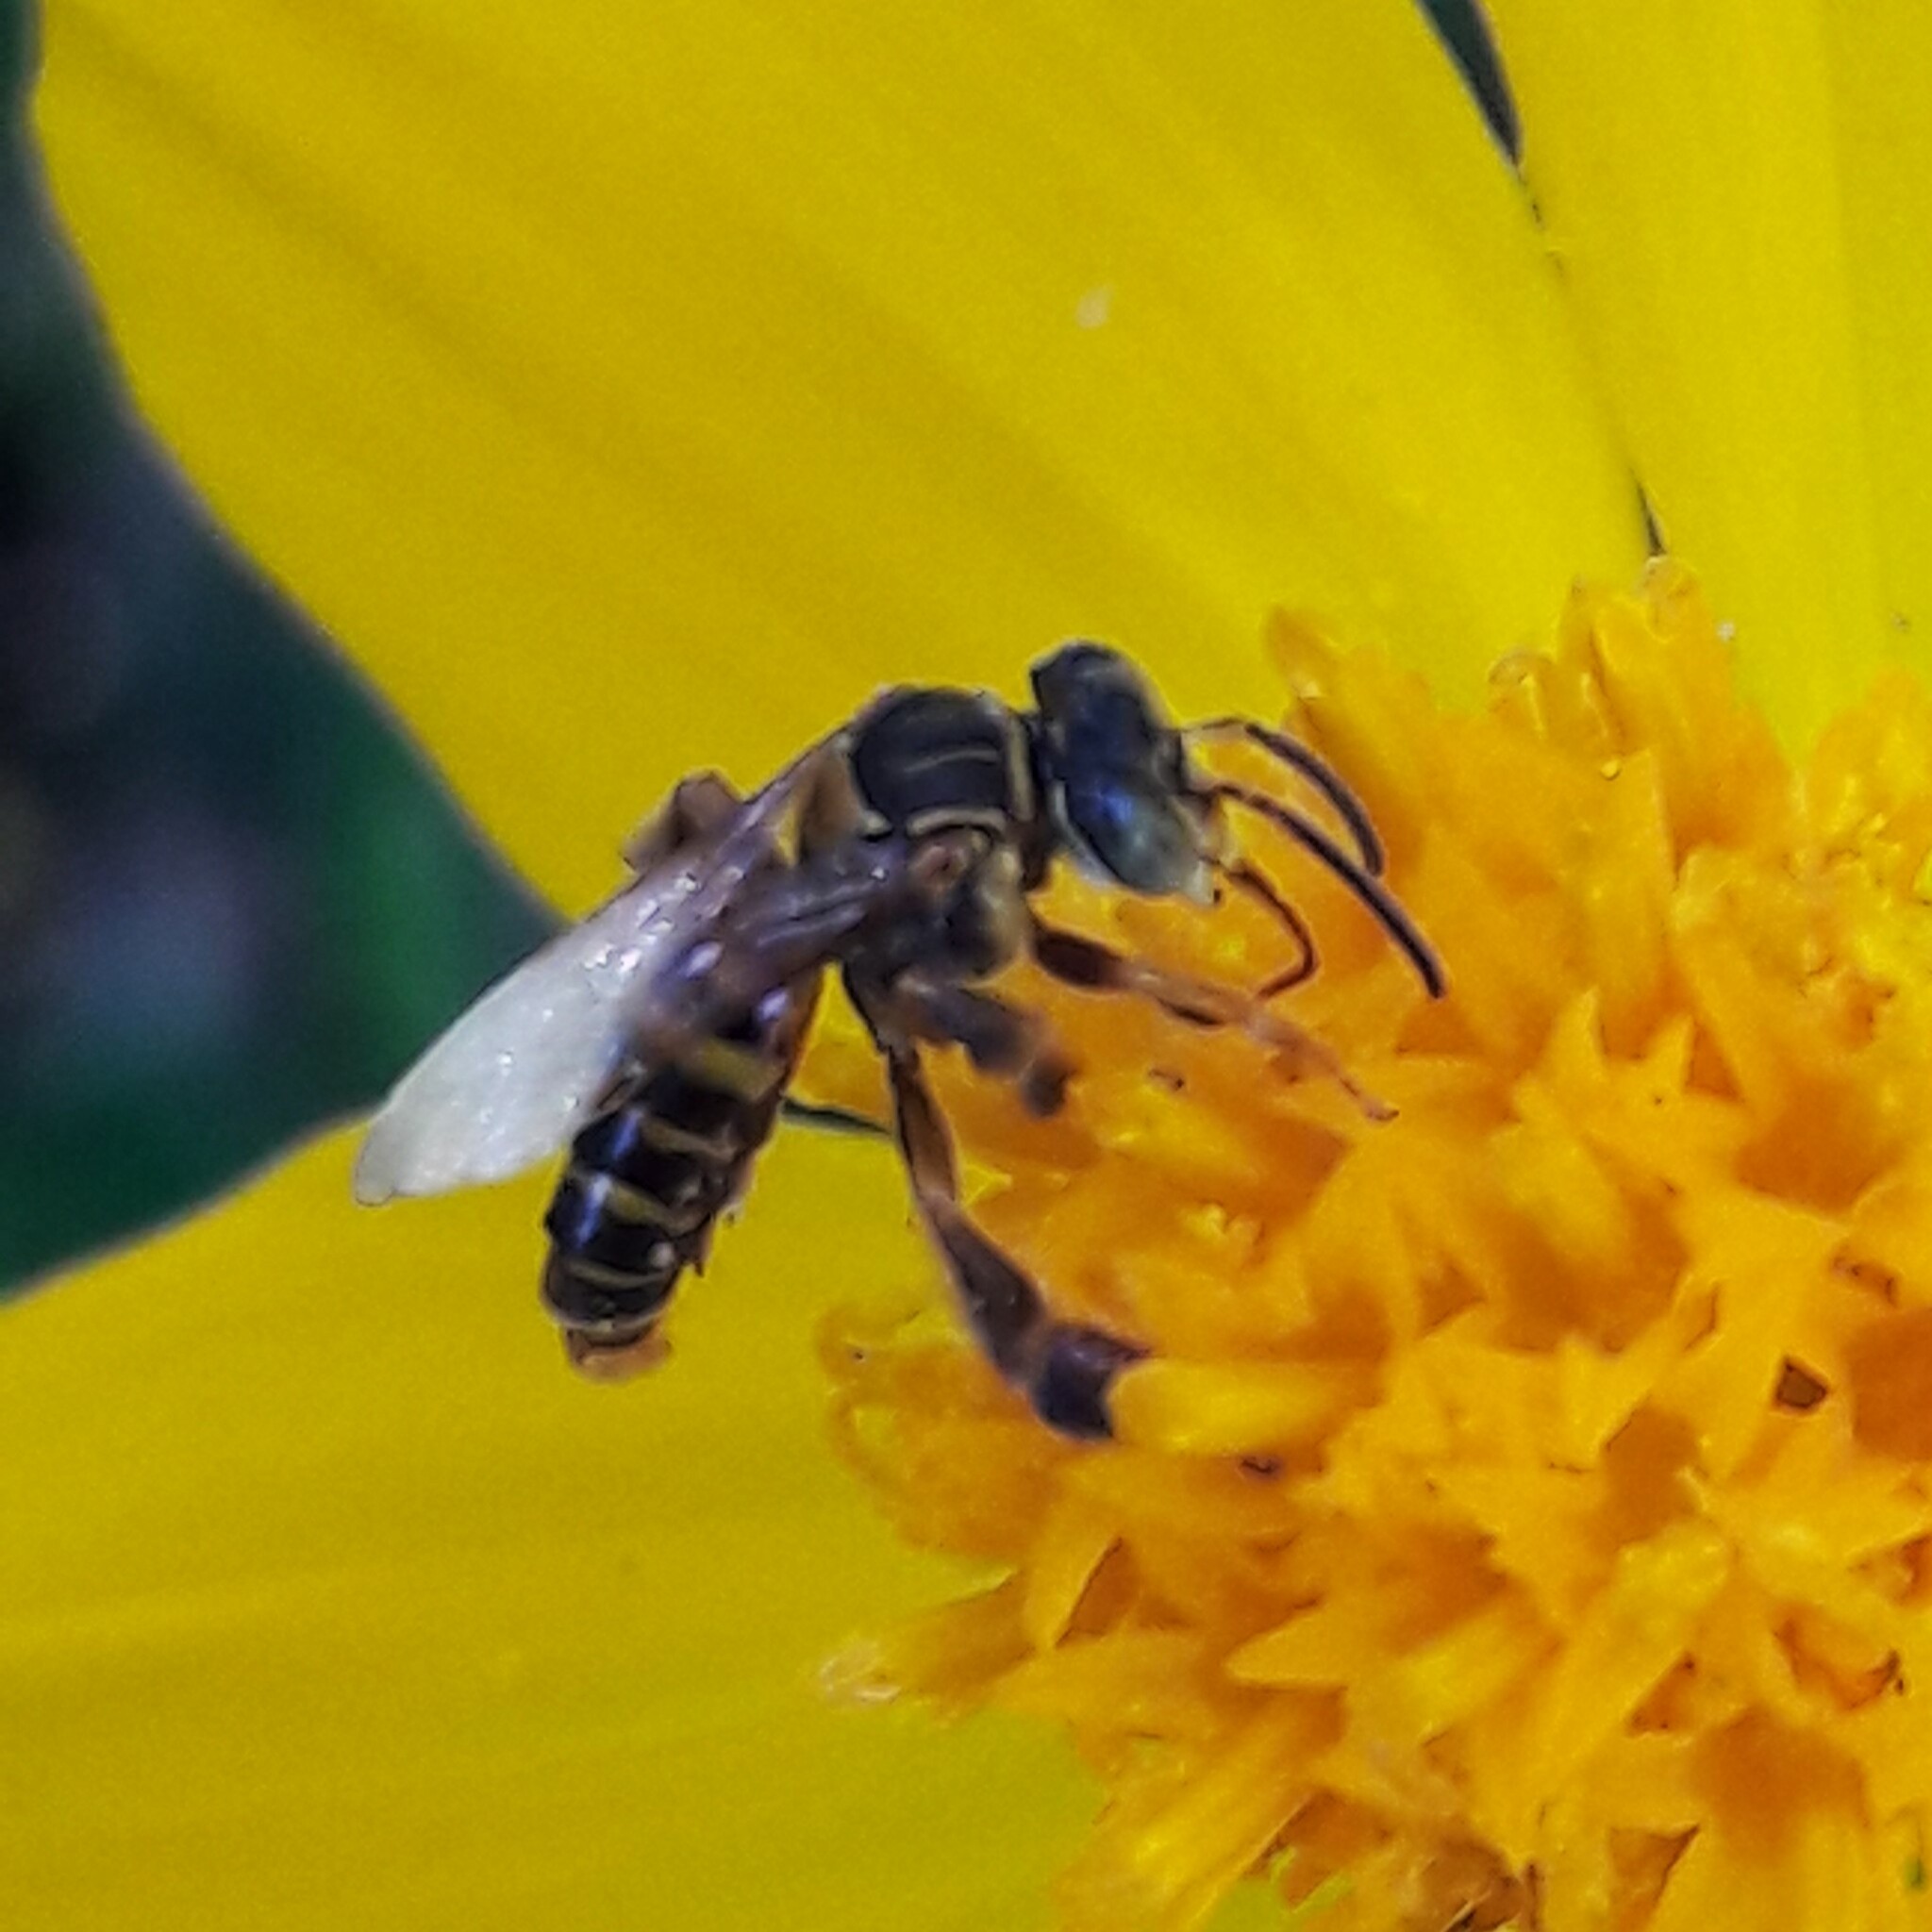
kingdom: Animalia
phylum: Arthropoda
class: Insecta
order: Hymenoptera
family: Apidae
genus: Paratetrapedia
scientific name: Paratetrapedia flaveola
